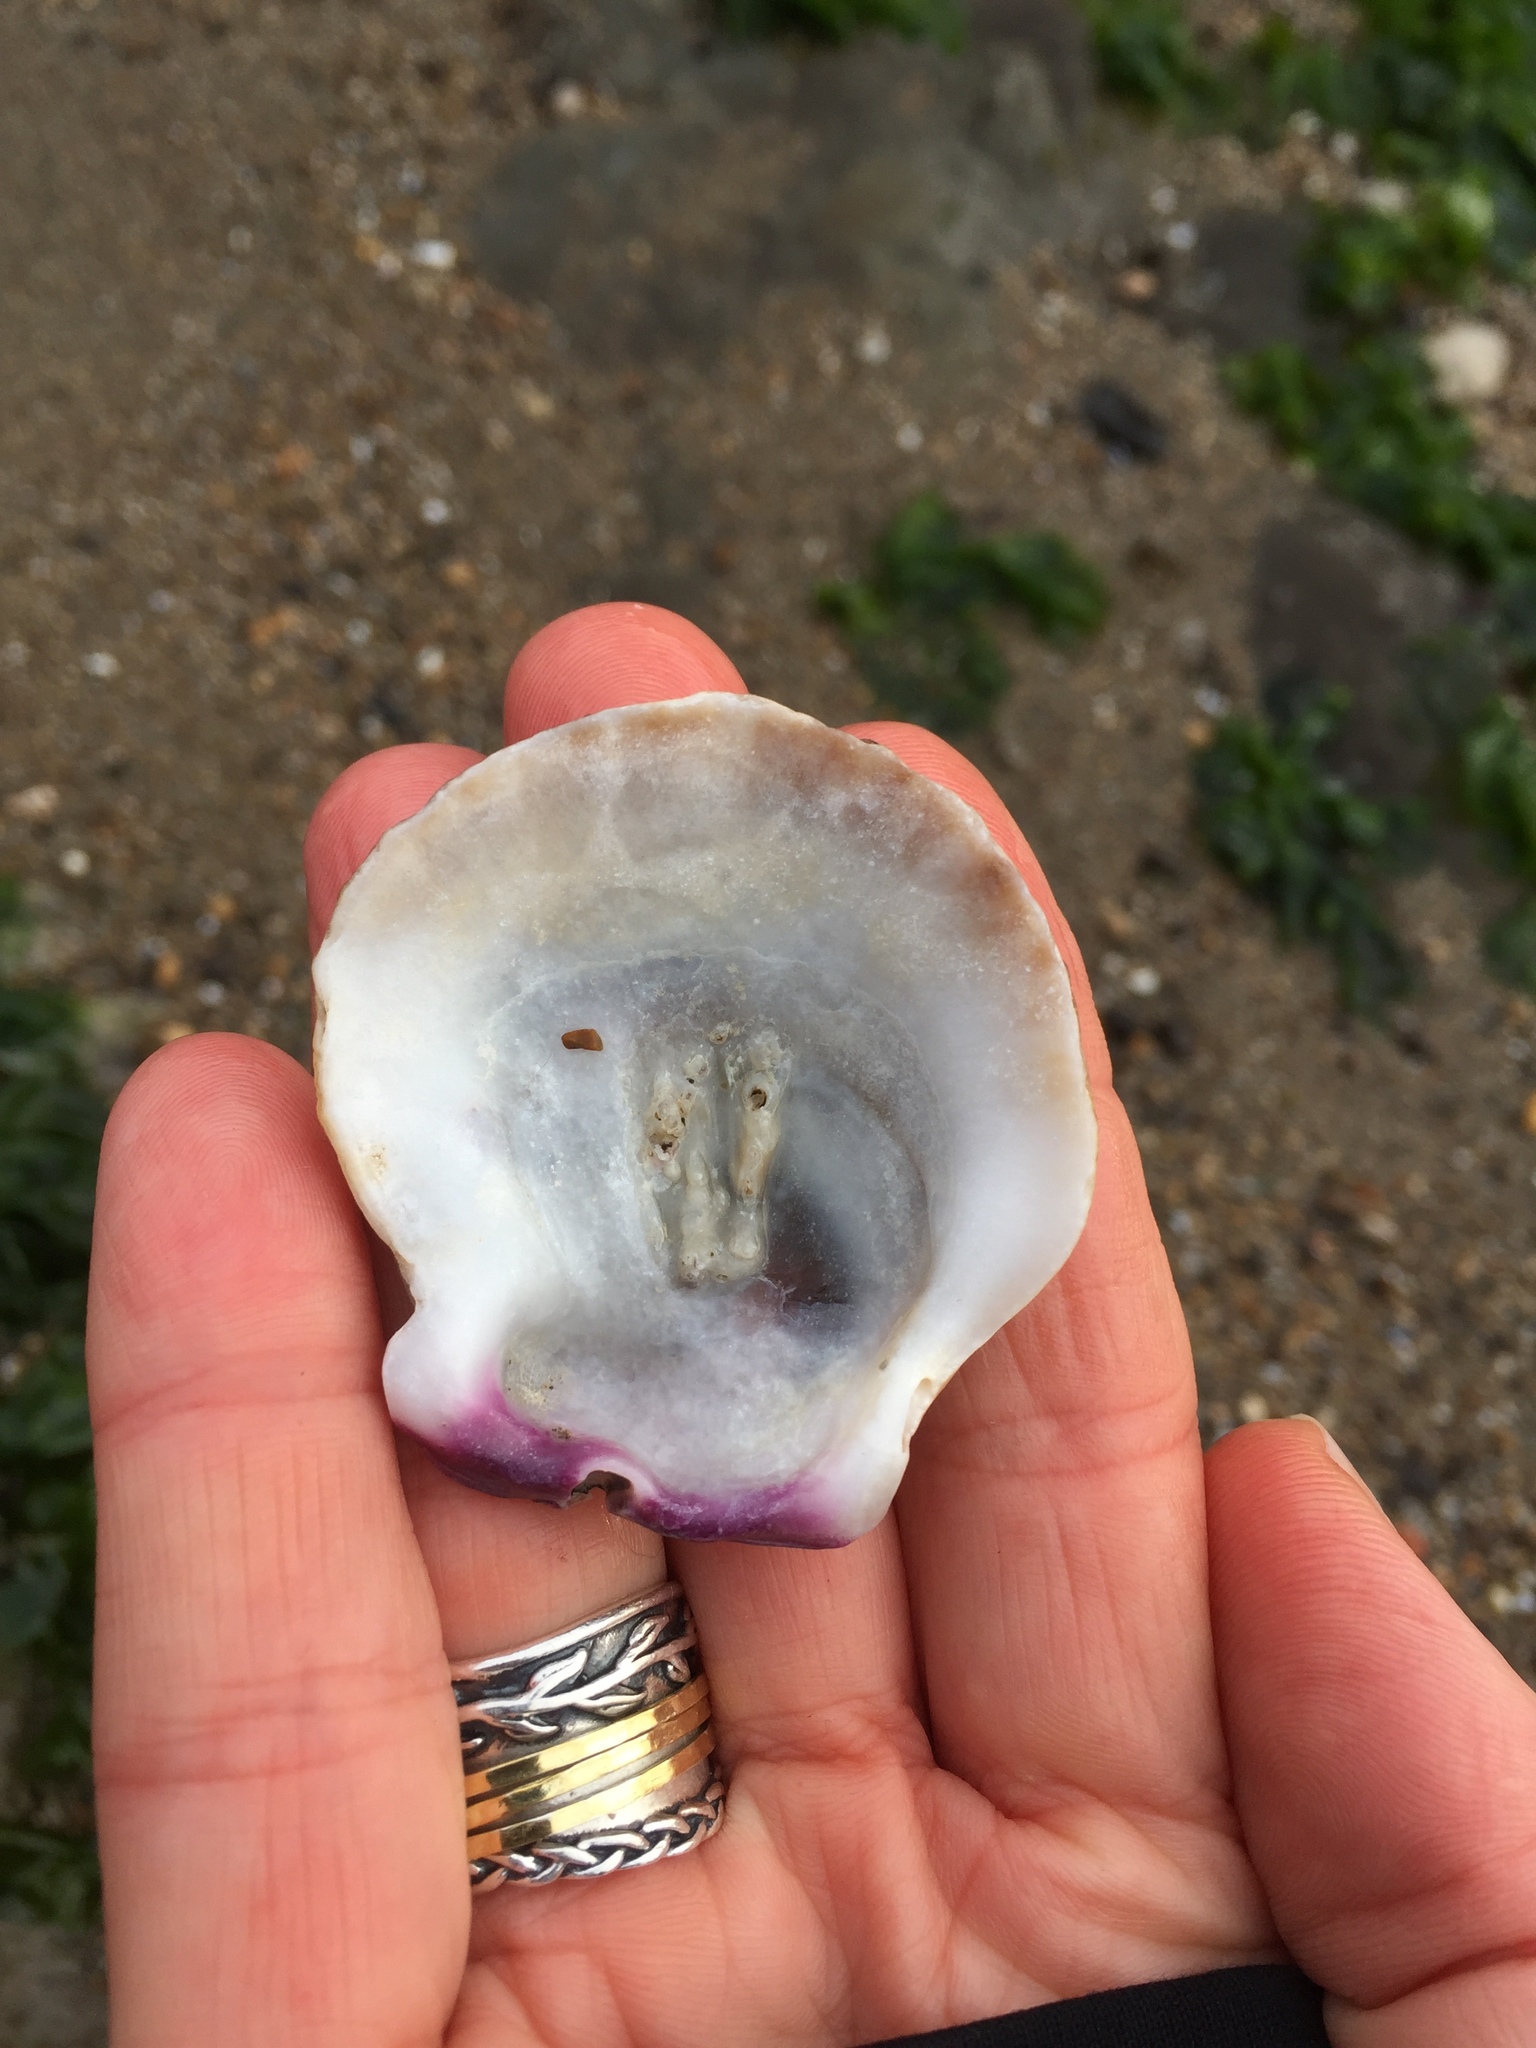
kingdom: Animalia
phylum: Mollusca
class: Bivalvia
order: Pectinida
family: Pectinidae
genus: Crassadoma
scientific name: Crassadoma gigantea
